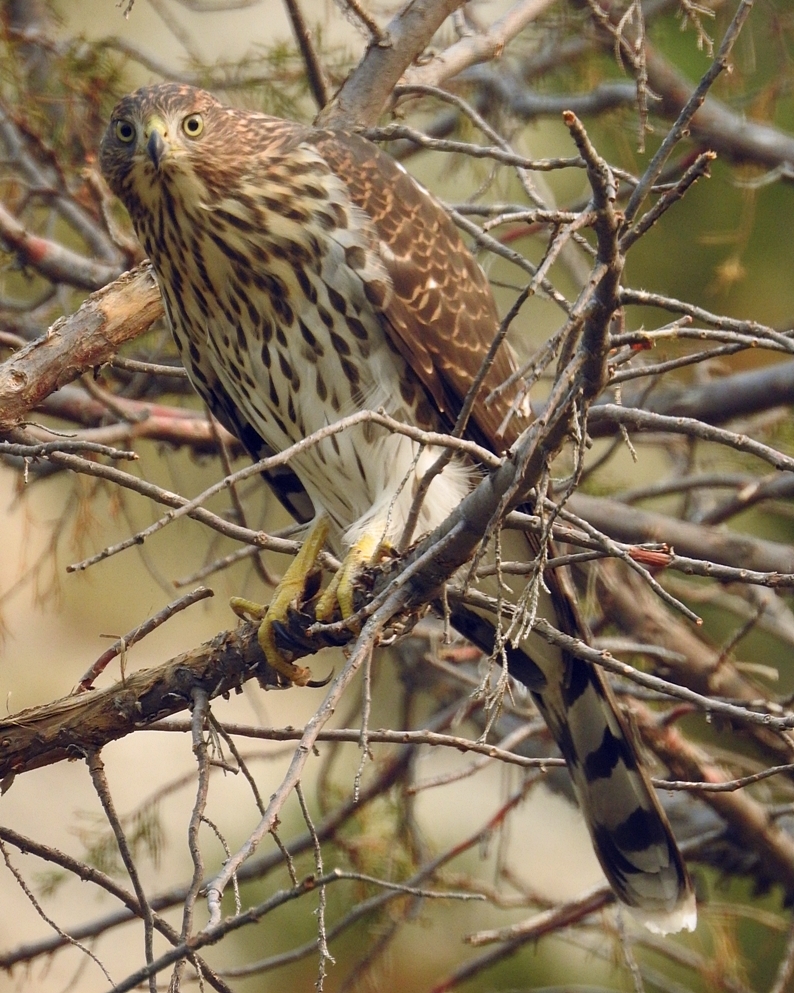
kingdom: Animalia
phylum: Chordata
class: Aves
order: Accipitriformes
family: Accipitridae
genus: Accipiter
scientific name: Accipiter cooperii
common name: Cooper's hawk
